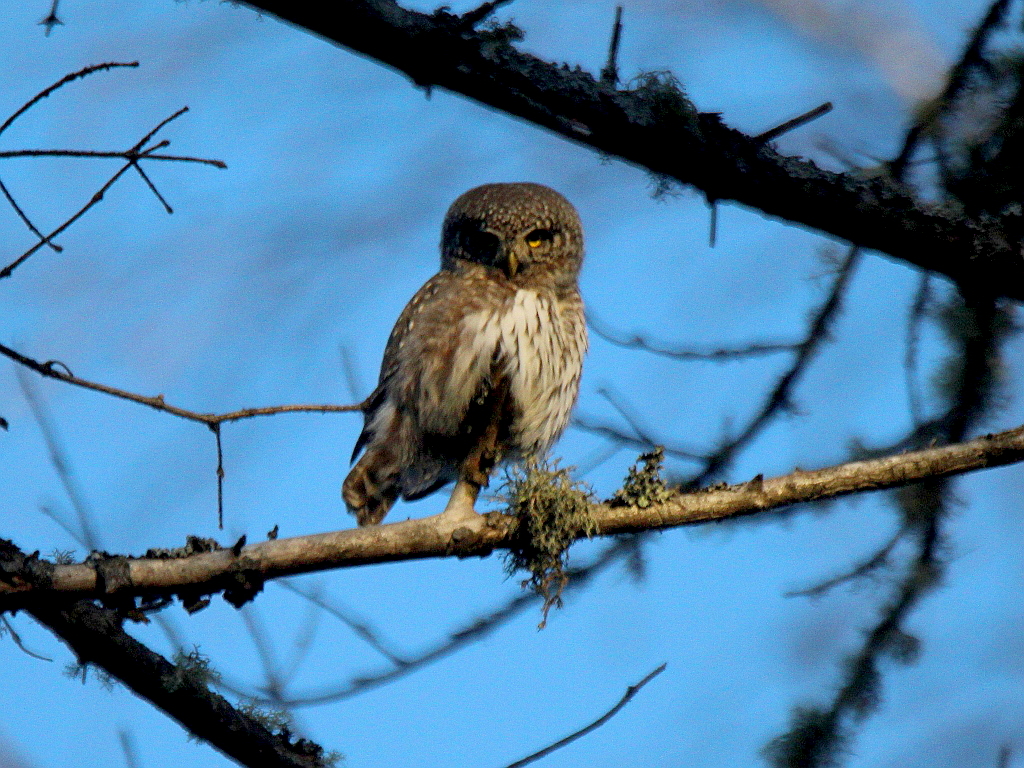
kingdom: Animalia
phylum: Chordata
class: Aves
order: Strigiformes
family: Strigidae
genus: Glaucidium
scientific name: Glaucidium passerinum
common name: Eurasian pygmy owl
